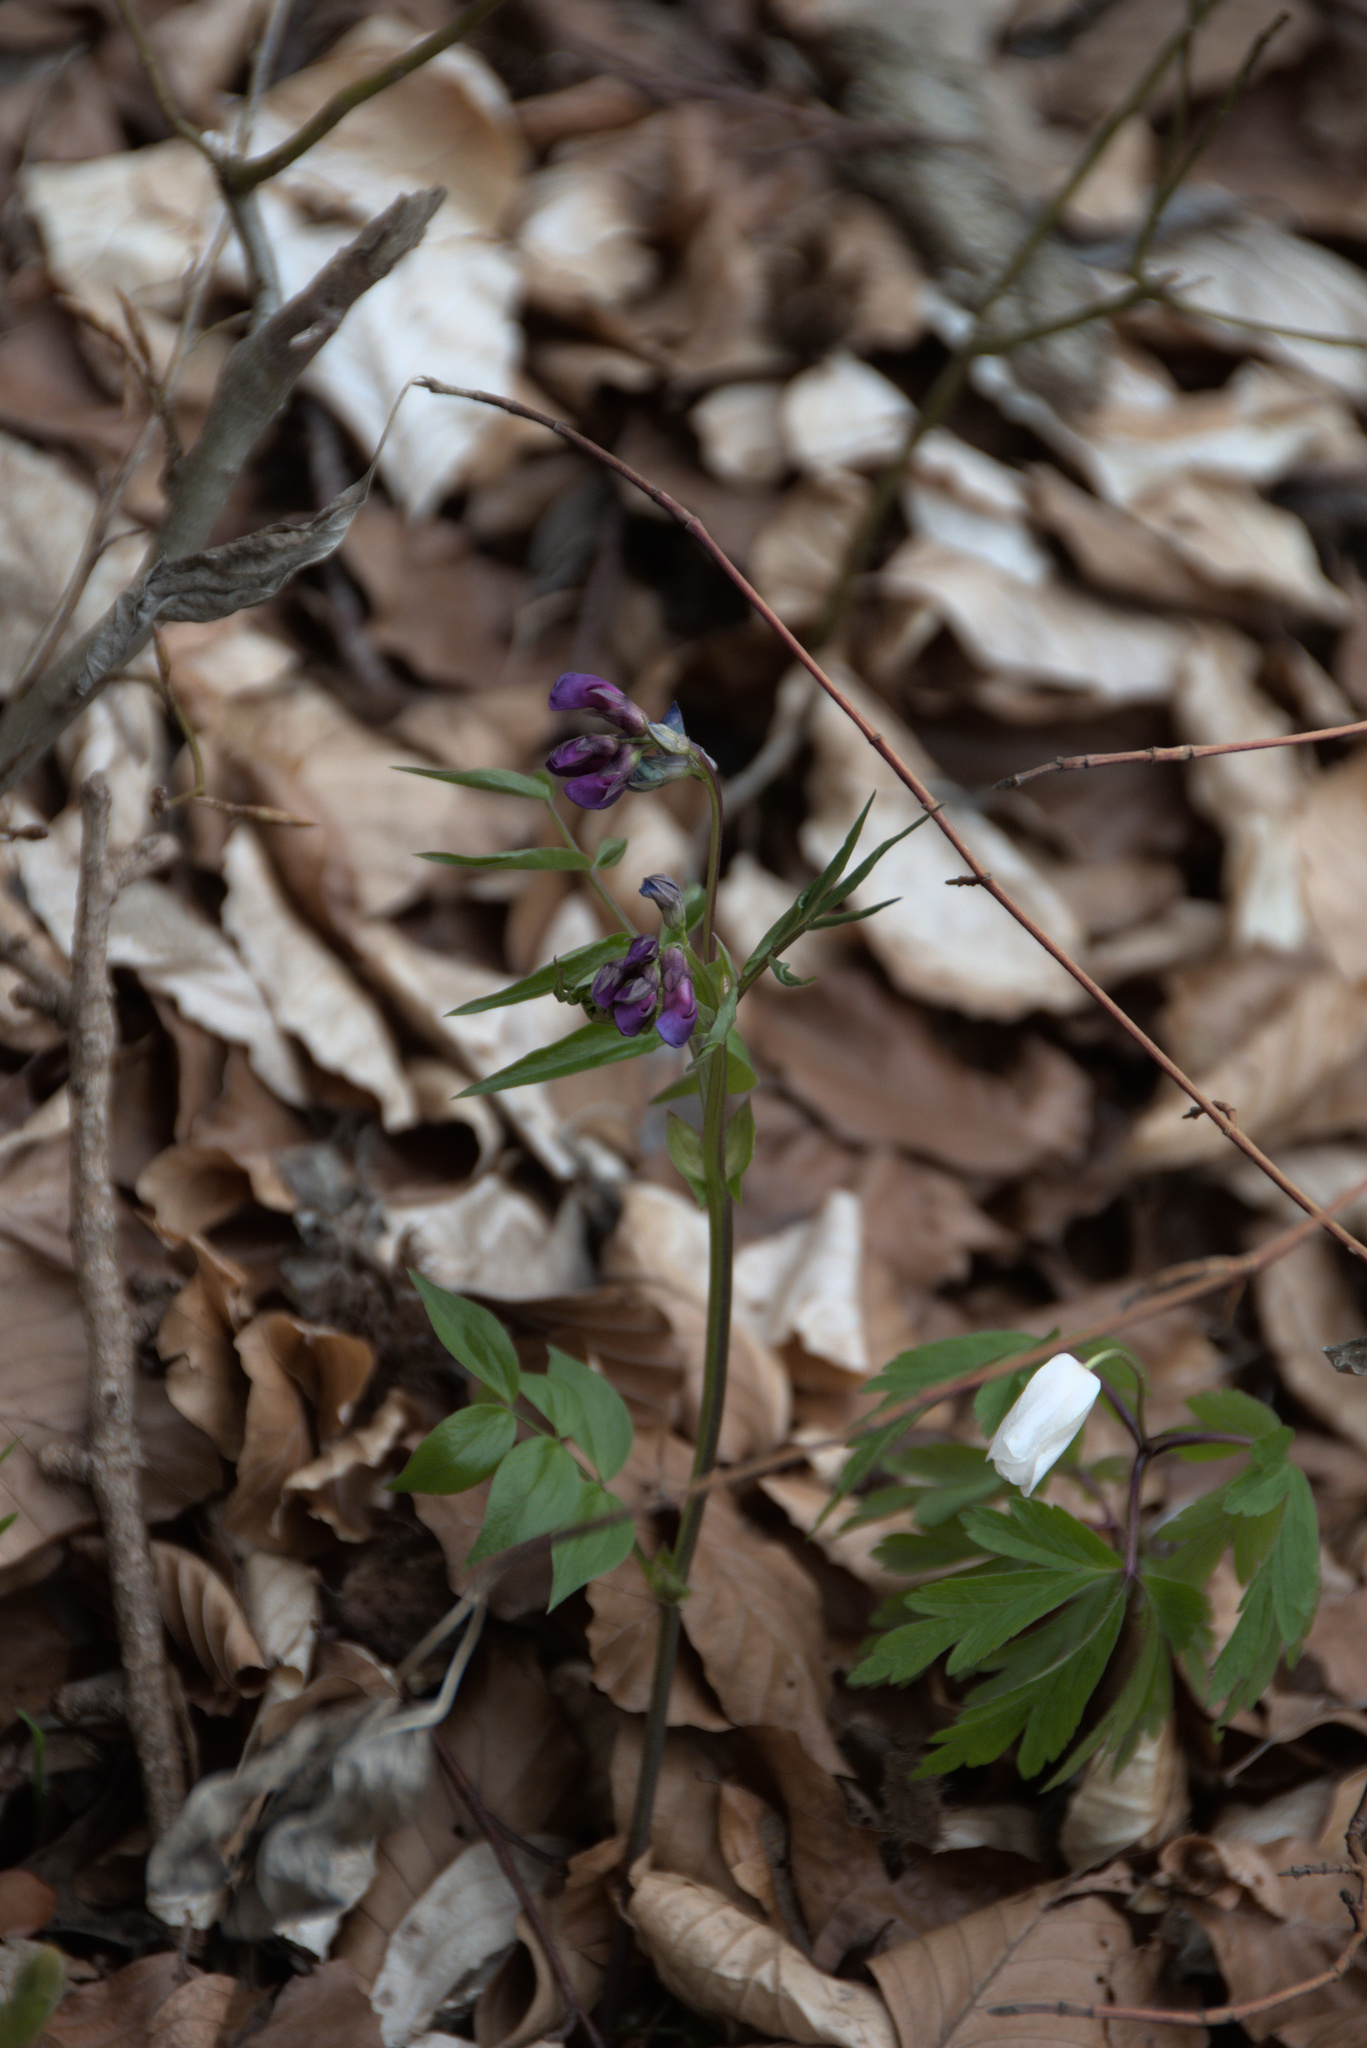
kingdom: Plantae
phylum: Tracheophyta
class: Magnoliopsida
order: Fabales
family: Fabaceae
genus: Lathyrus
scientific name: Lathyrus vernus
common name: Spring pea
